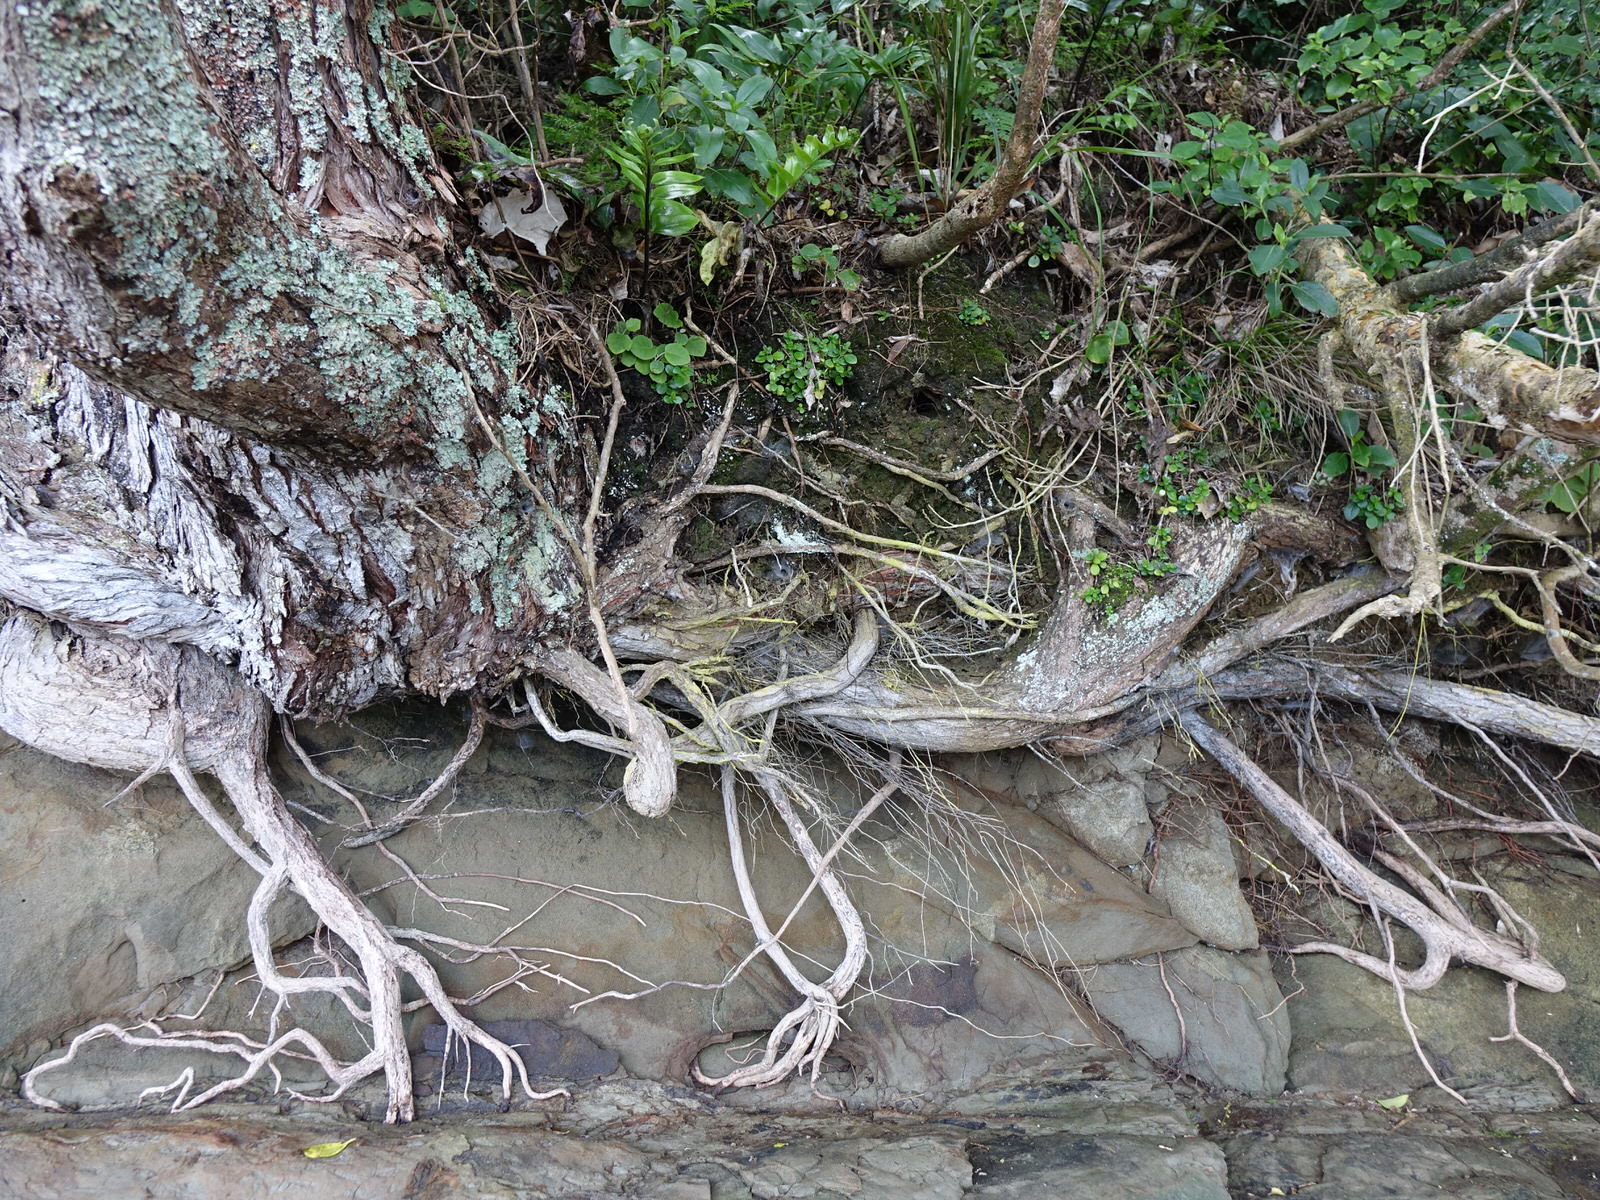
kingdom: Plantae
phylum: Tracheophyta
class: Magnoliopsida
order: Piperales
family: Piperaceae
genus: Peperomia
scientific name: Peperomia urvilleana
